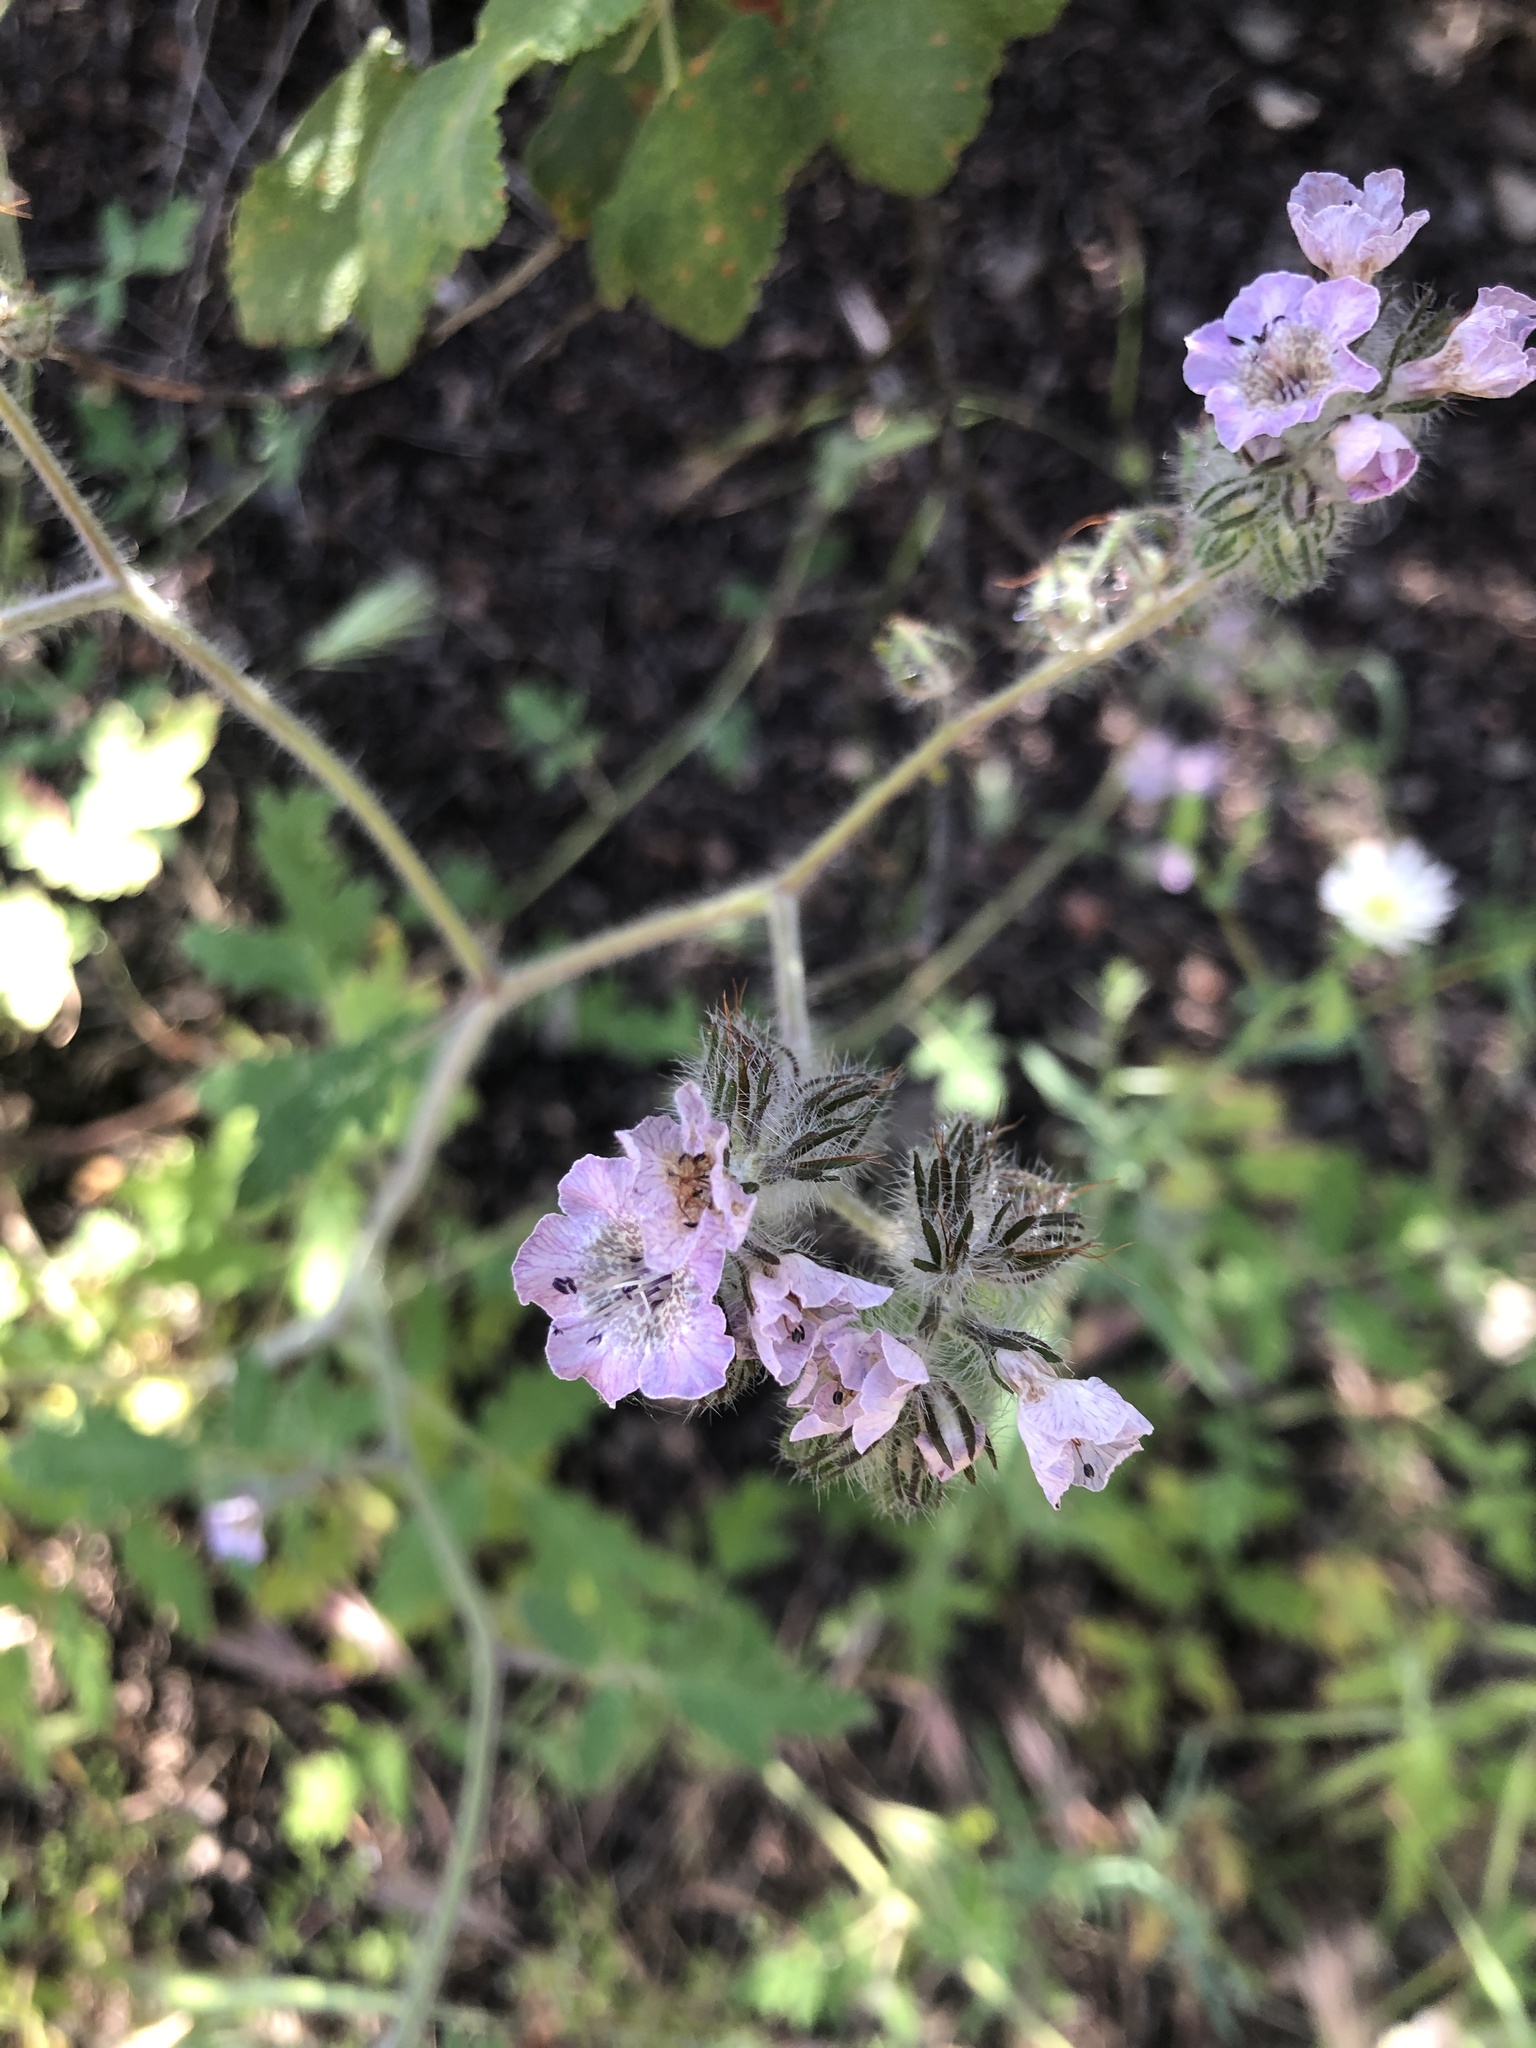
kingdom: Plantae
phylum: Tracheophyta
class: Magnoliopsida
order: Boraginales
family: Hydrophyllaceae
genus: Phacelia
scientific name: Phacelia cicutaria
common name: Caterpillar phacelia
